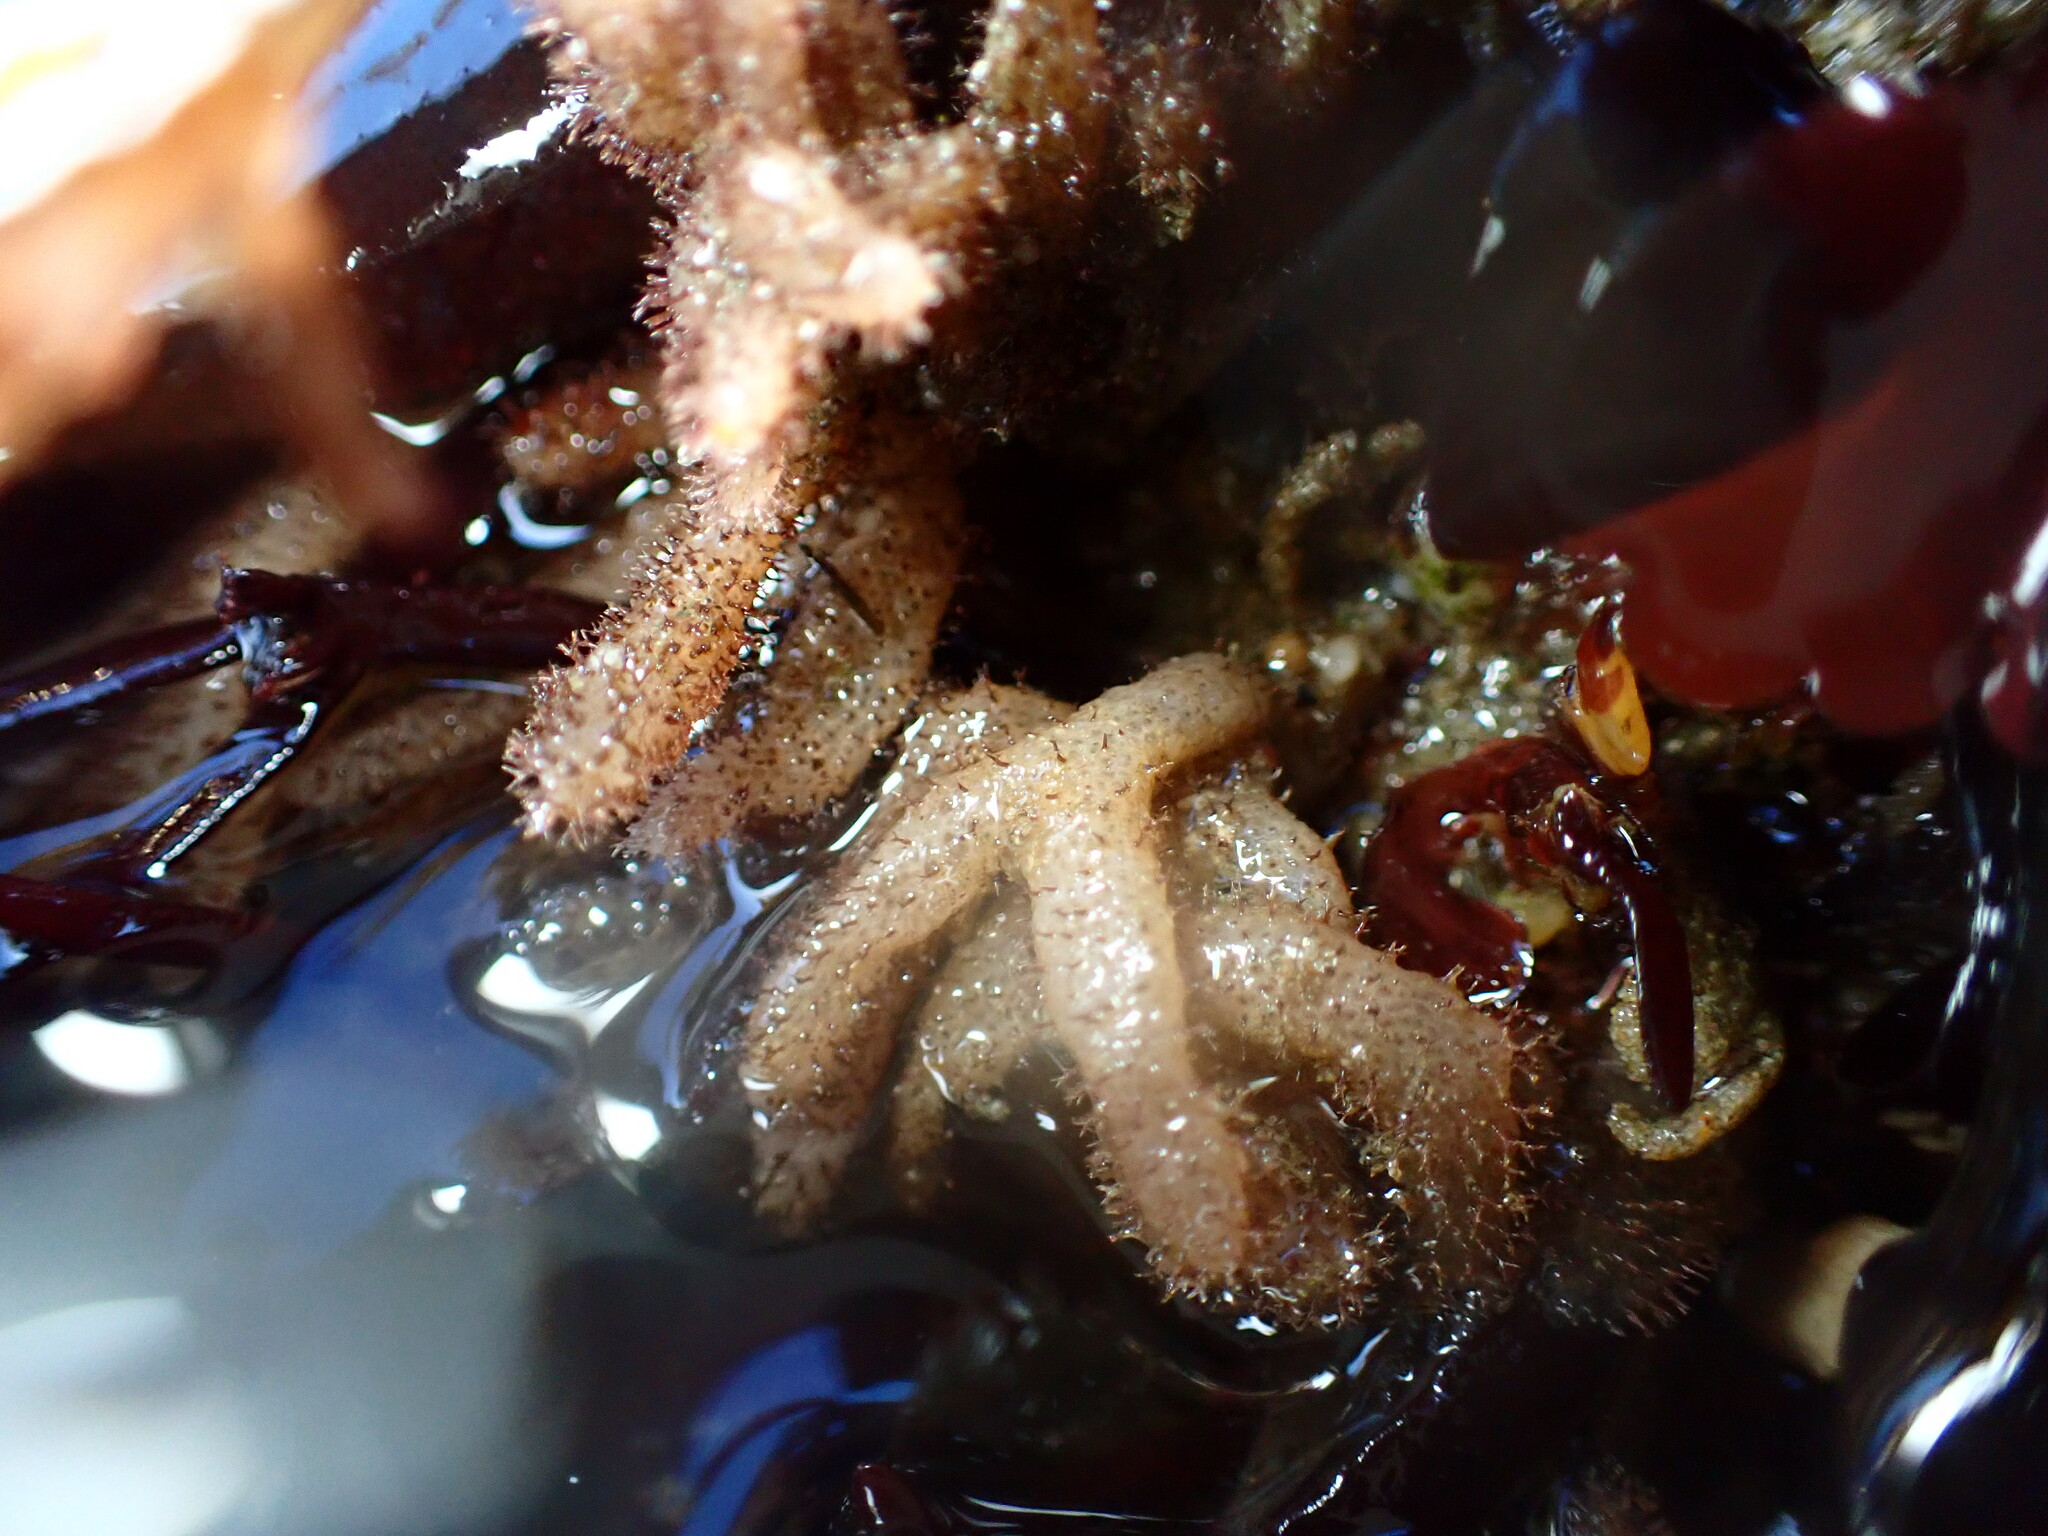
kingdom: Animalia
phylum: Bryozoa
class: Gymnolaemata
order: Ctenostomatida
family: Flustrellidridae
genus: Flustrellidra
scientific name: Flustrellidra corniculata
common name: Spiny leather bryozoan
